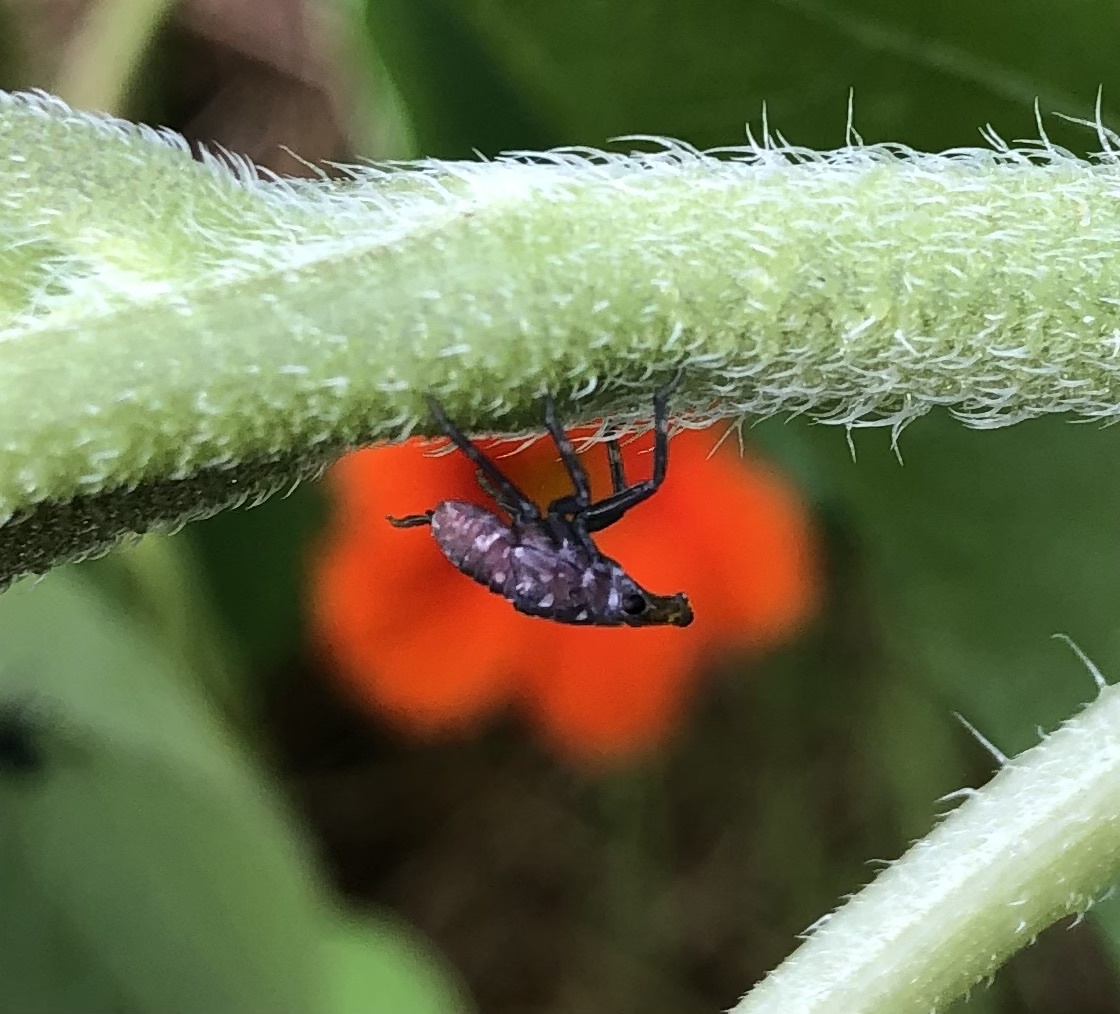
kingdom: Animalia
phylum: Arthropoda
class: Insecta
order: Hemiptera
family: Fulgoridae
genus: Lycorma
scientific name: Lycorma delicatula
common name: Spotted lanternfly
